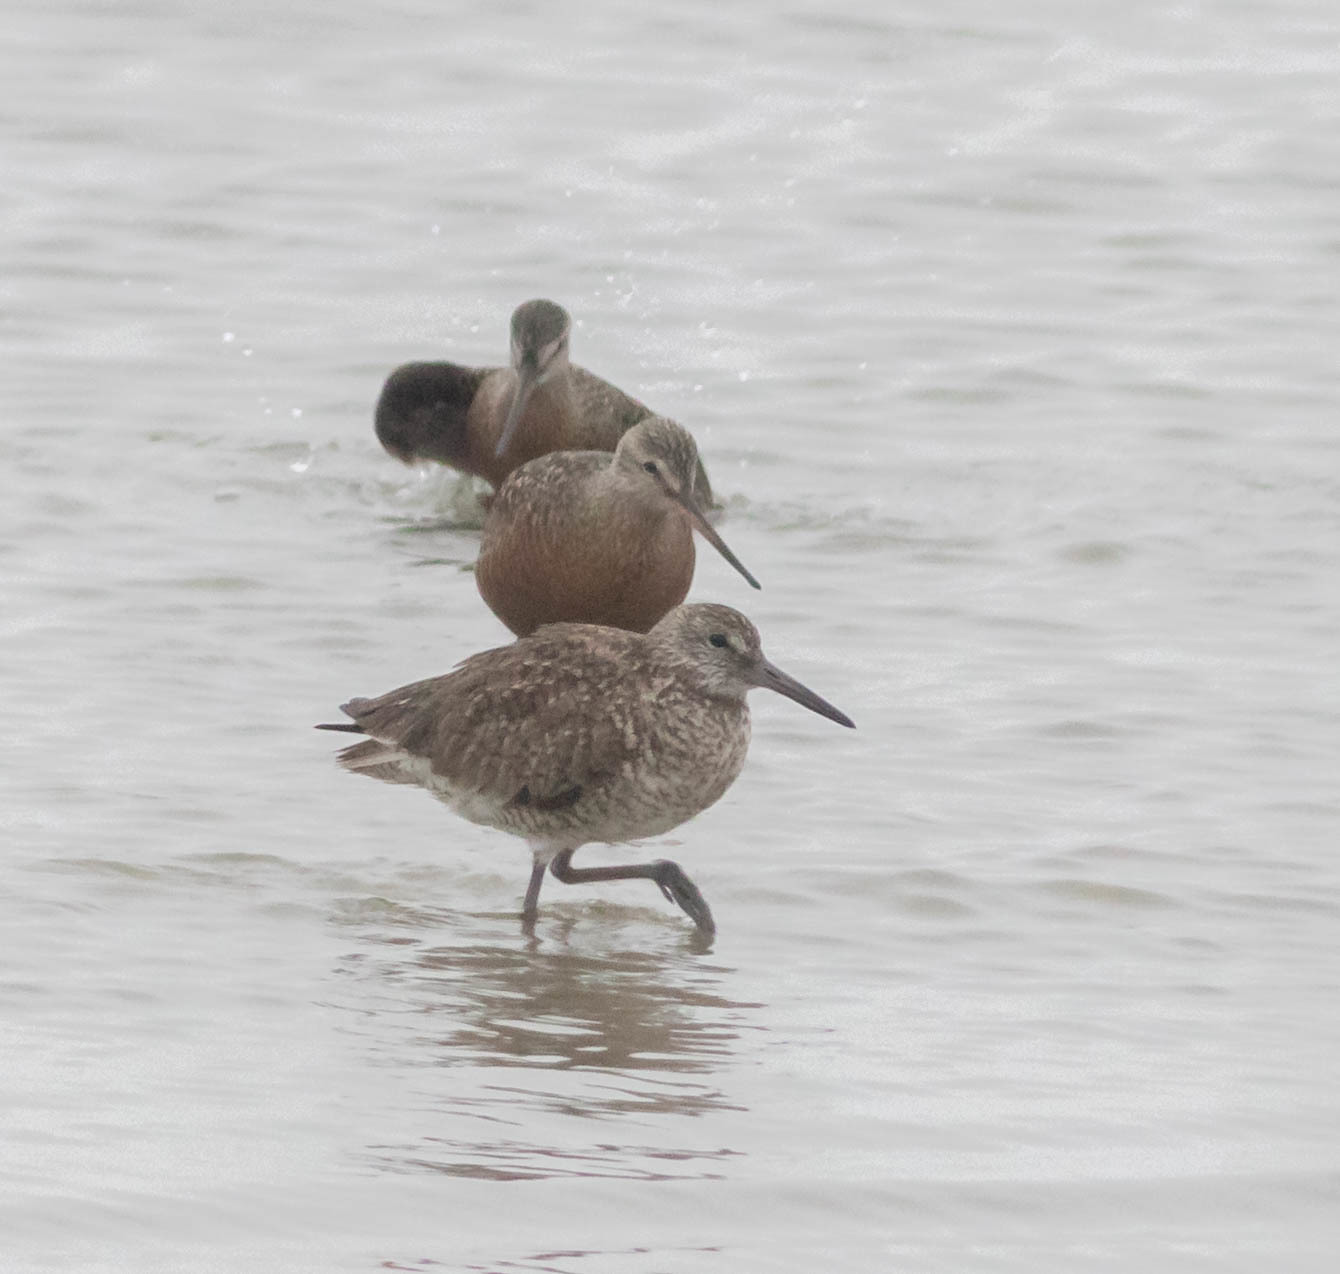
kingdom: Animalia
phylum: Chordata
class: Aves
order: Charadriiformes
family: Scolopacidae
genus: Tringa
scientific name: Tringa semipalmata
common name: Willet
